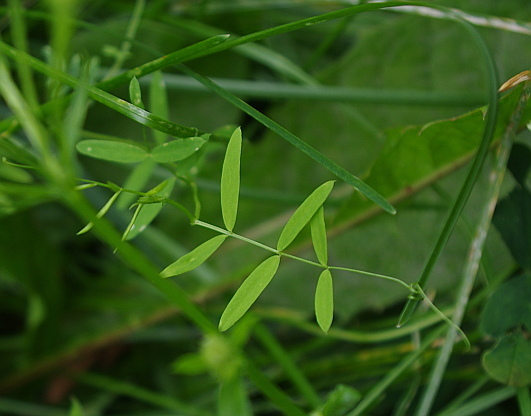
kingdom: Plantae
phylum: Tracheophyta
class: Magnoliopsida
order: Fabales
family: Fabaceae
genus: Vicia
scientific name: Vicia cracca
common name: Bird vetch
